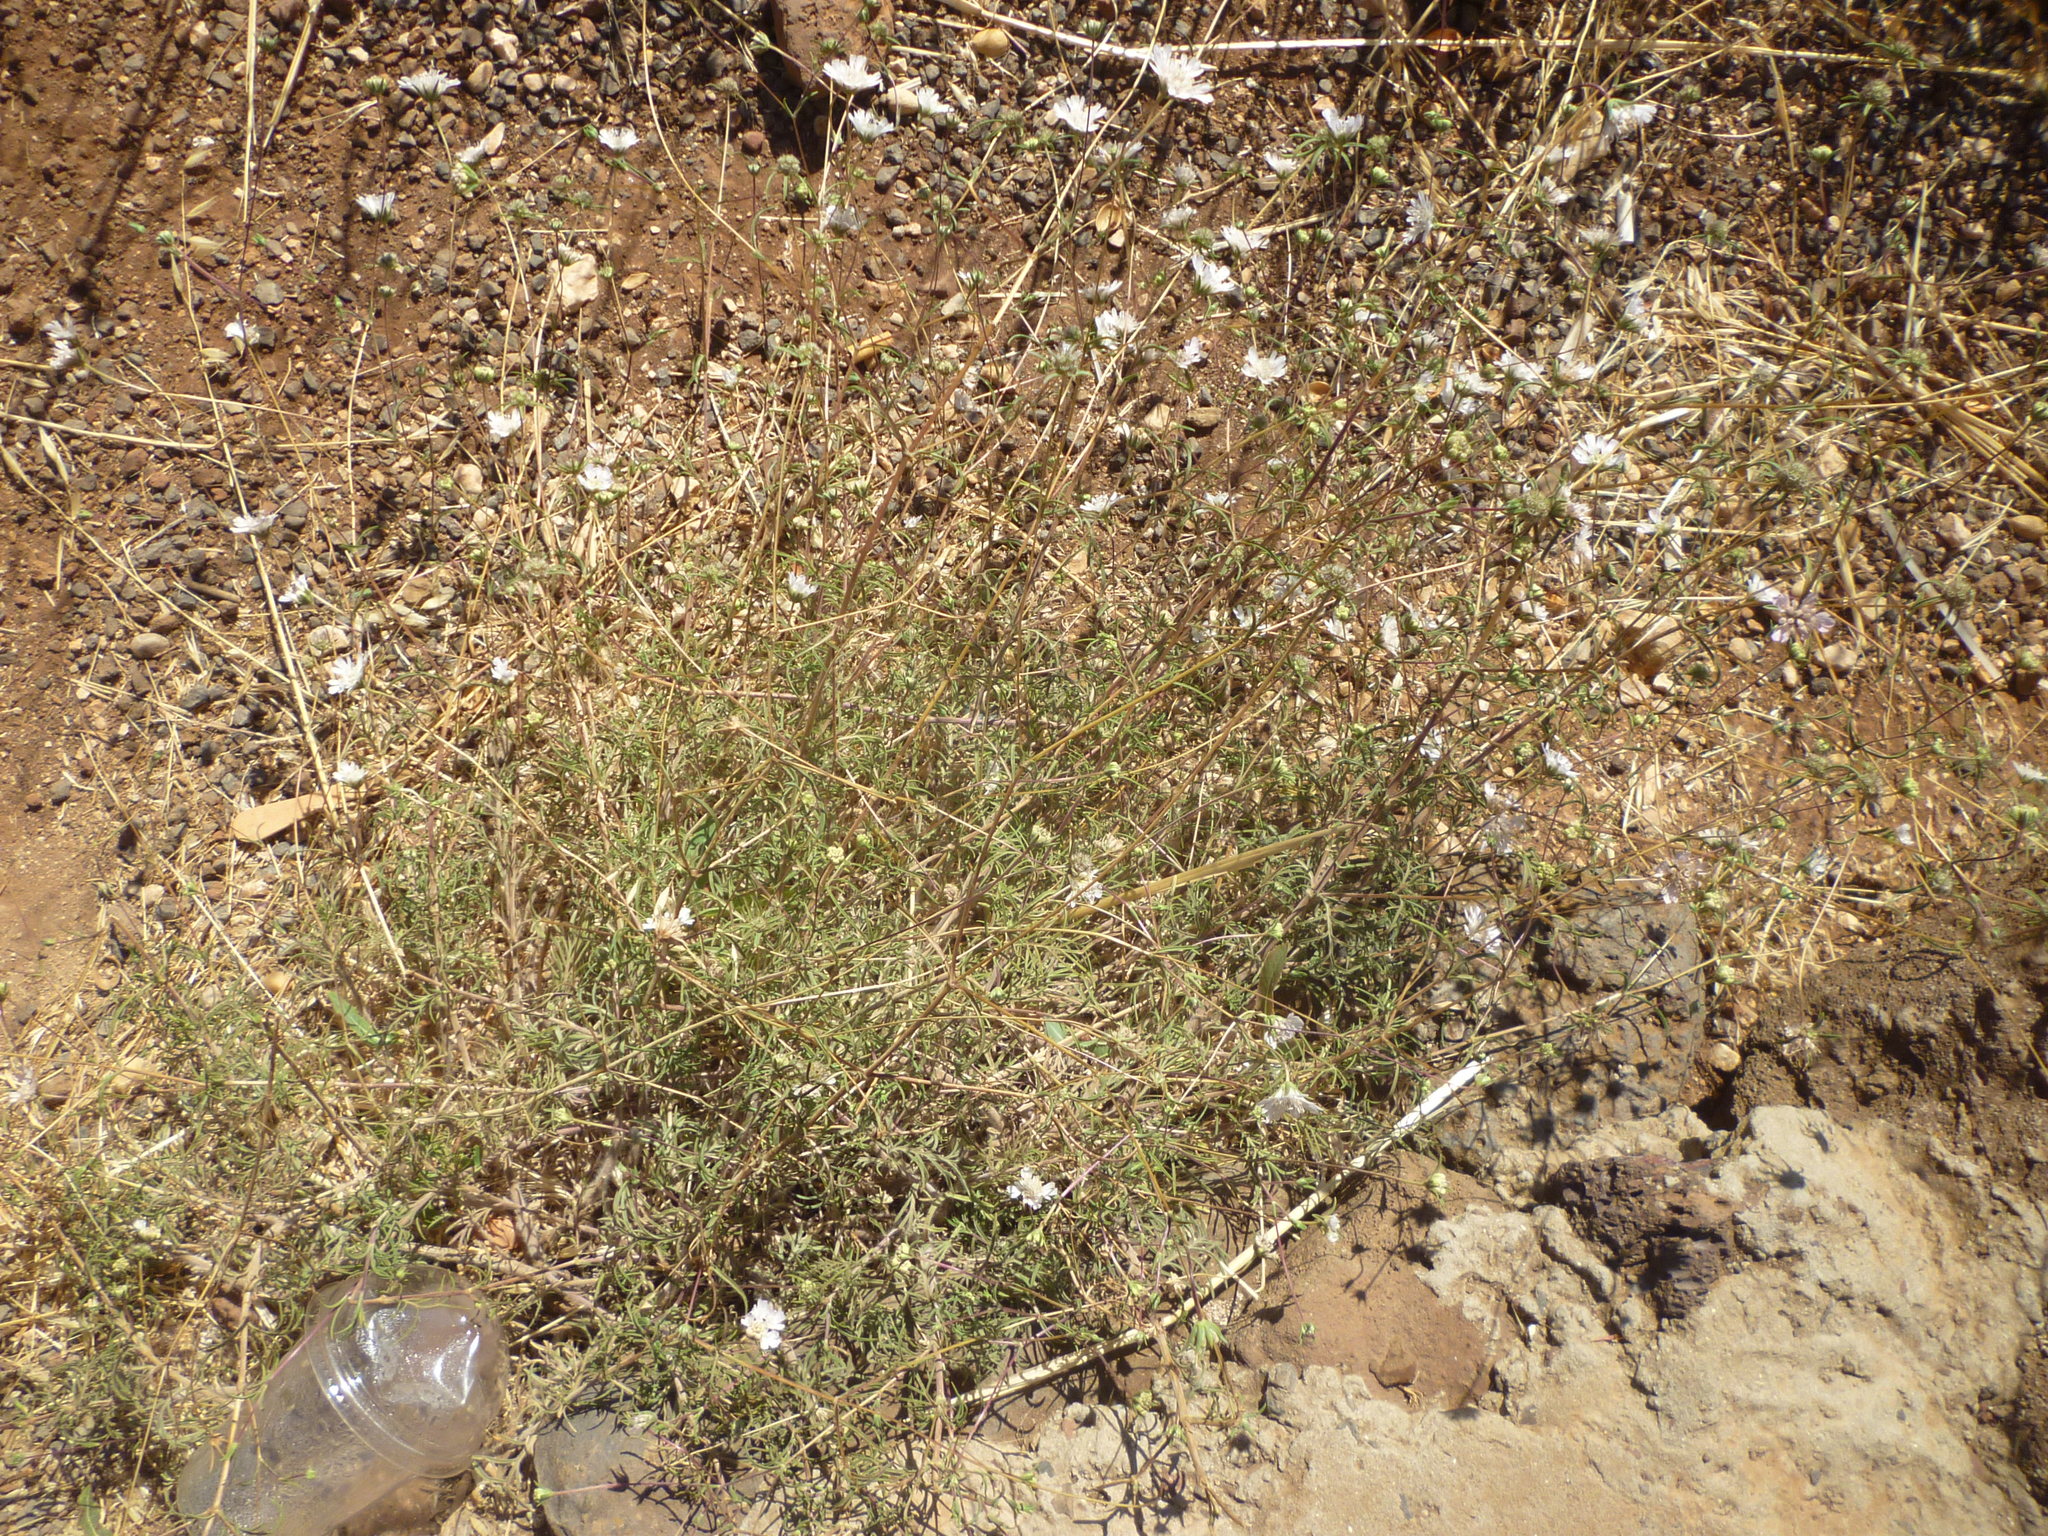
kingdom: Plantae
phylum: Tracheophyta
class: Magnoliopsida
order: Dipsacales
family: Caprifoliaceae
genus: Knautia
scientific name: Knautia integrifolia
